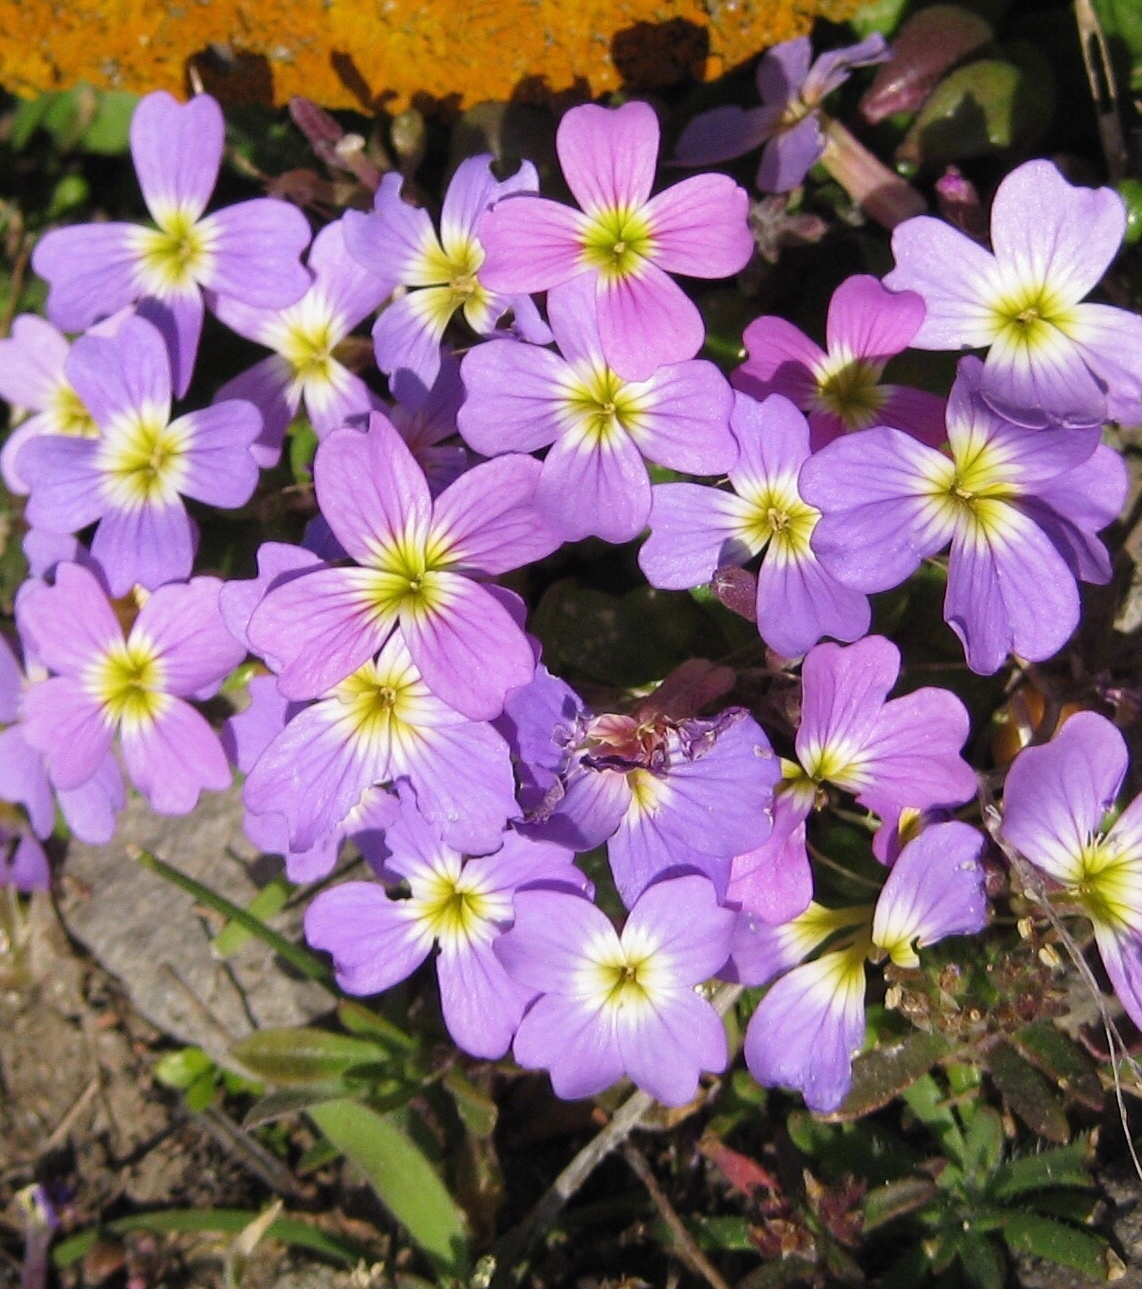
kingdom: Plantae
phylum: Tracheophyta
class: Magnoliopsida
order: Brassicales
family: Brassicaceae
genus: Malcolmia
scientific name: Malcolmia flexuosa
